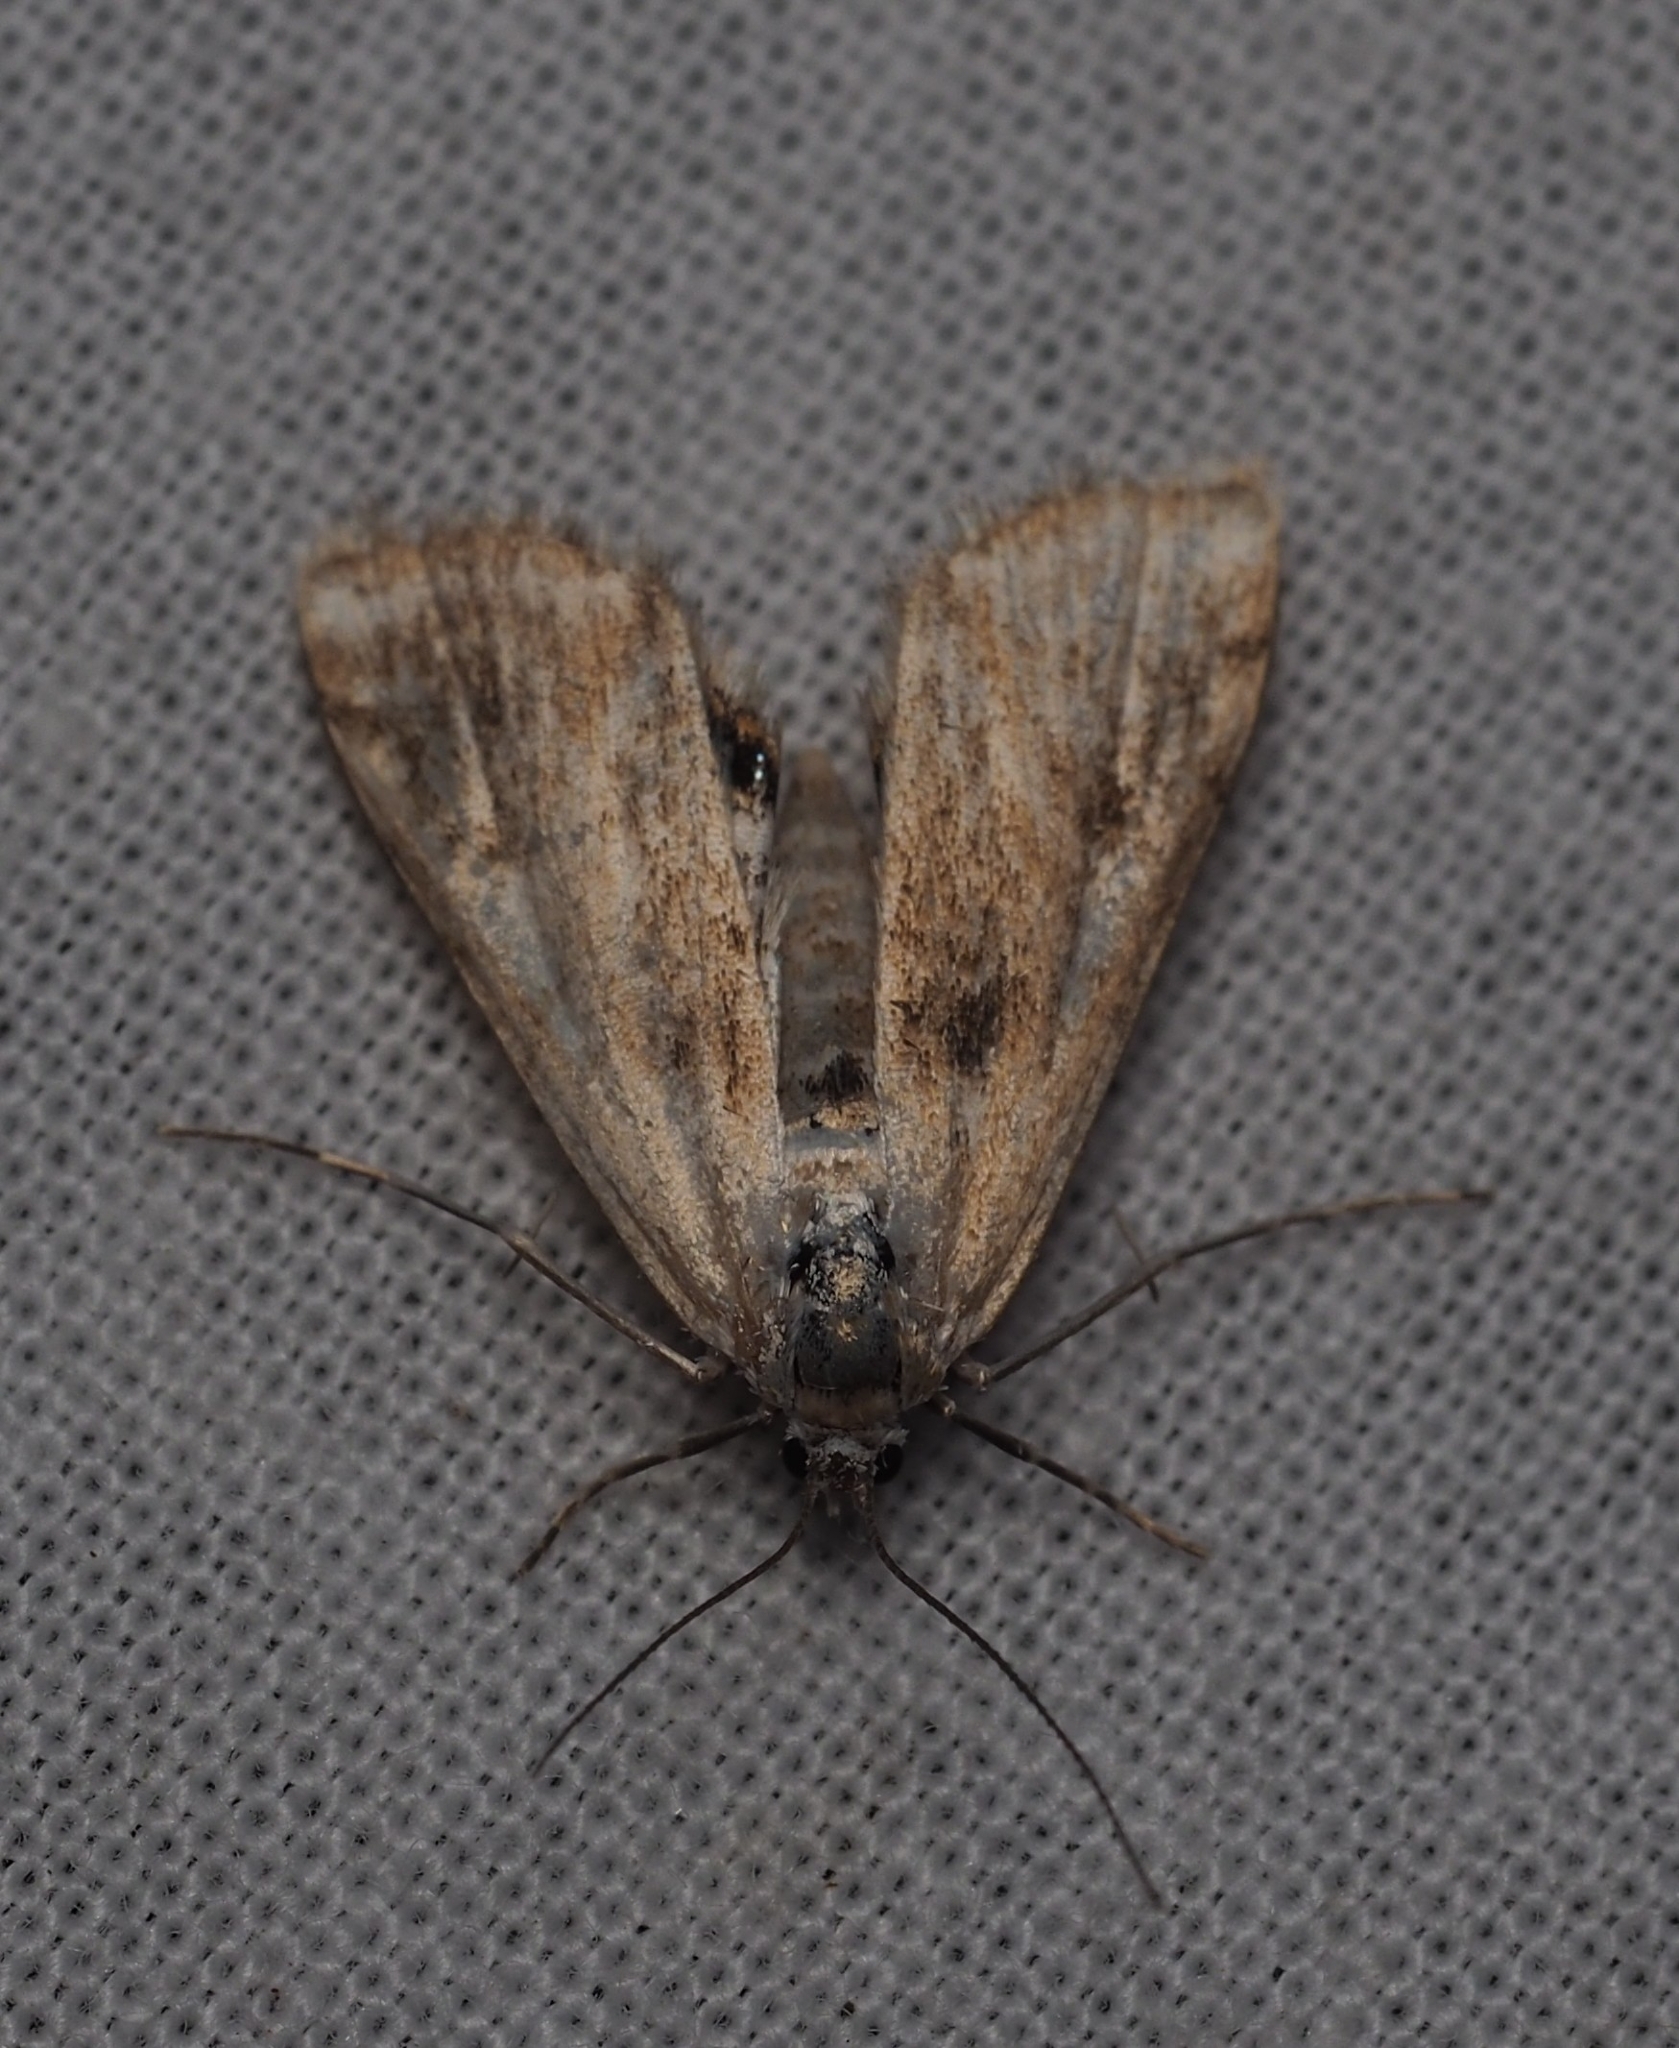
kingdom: Animalia
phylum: Arthropoda
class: Insecta
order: Lepidoptera
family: Crambidae
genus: Cataclysta
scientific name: Cataclysta lemnata
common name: Small china-mark
